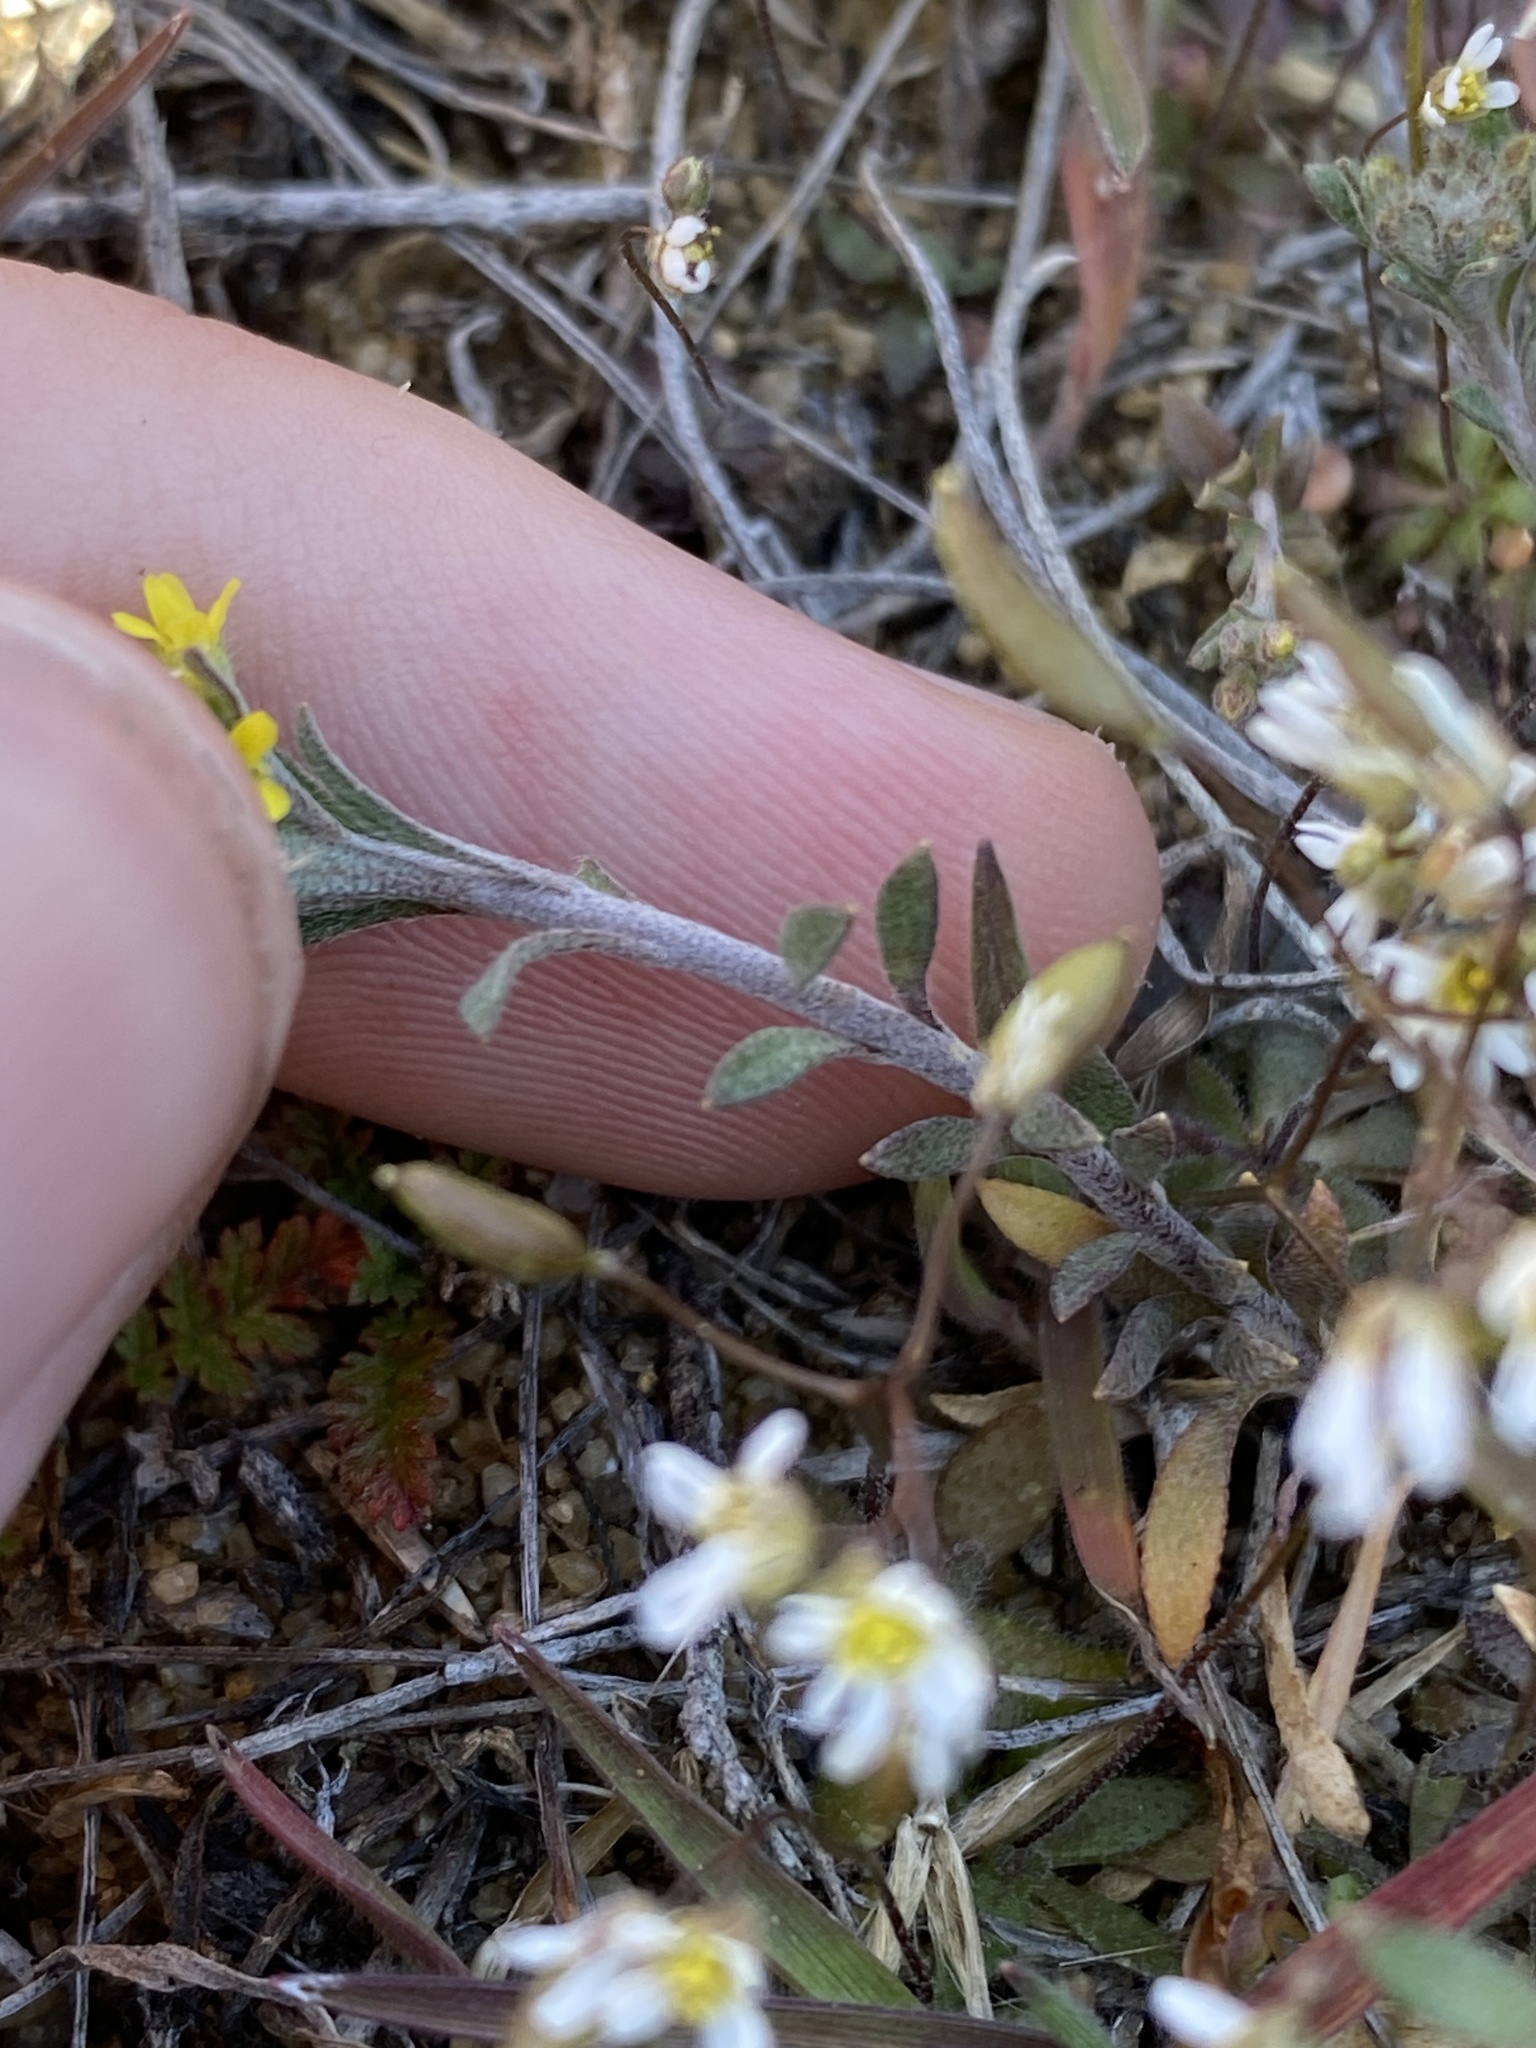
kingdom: Plantae
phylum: Tracheophyta
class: Magnoliopsida
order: Brassicales
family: Brassicaceae
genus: Alyssum
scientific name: Alyssum turkestanicum
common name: Desert alyssum
